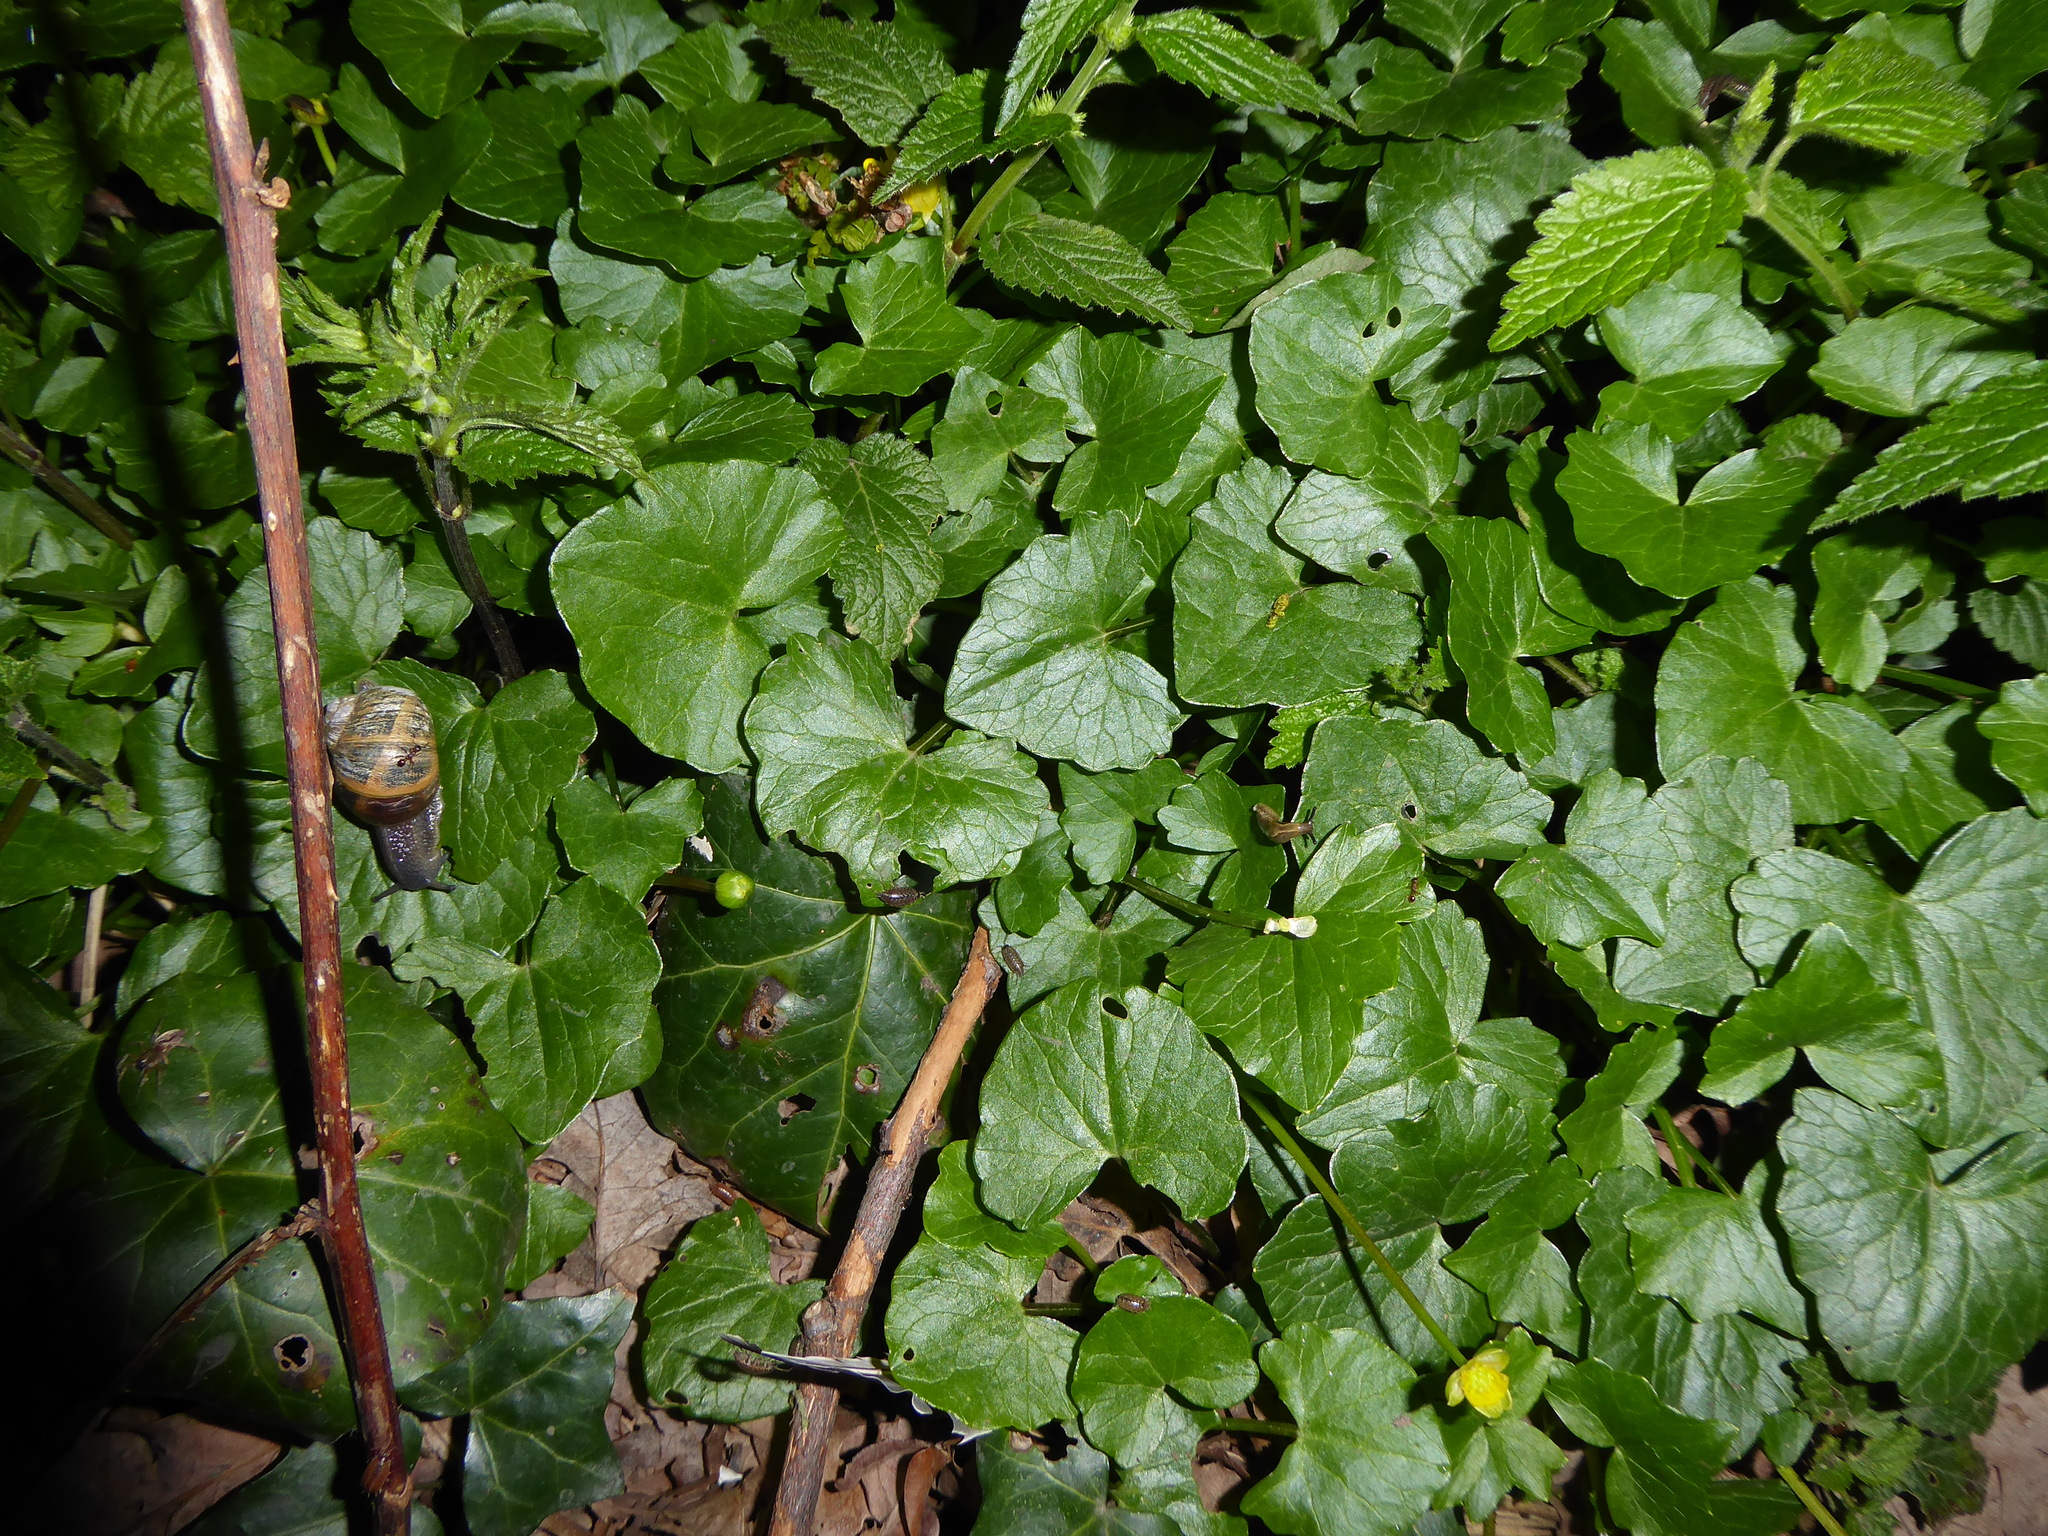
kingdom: Plantae
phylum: Tracheophyta
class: Magnoliopsida
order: Ranunculales
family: Ranunculaceae
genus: Ficaria
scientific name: Ficaria verna
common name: Lesser celandine
